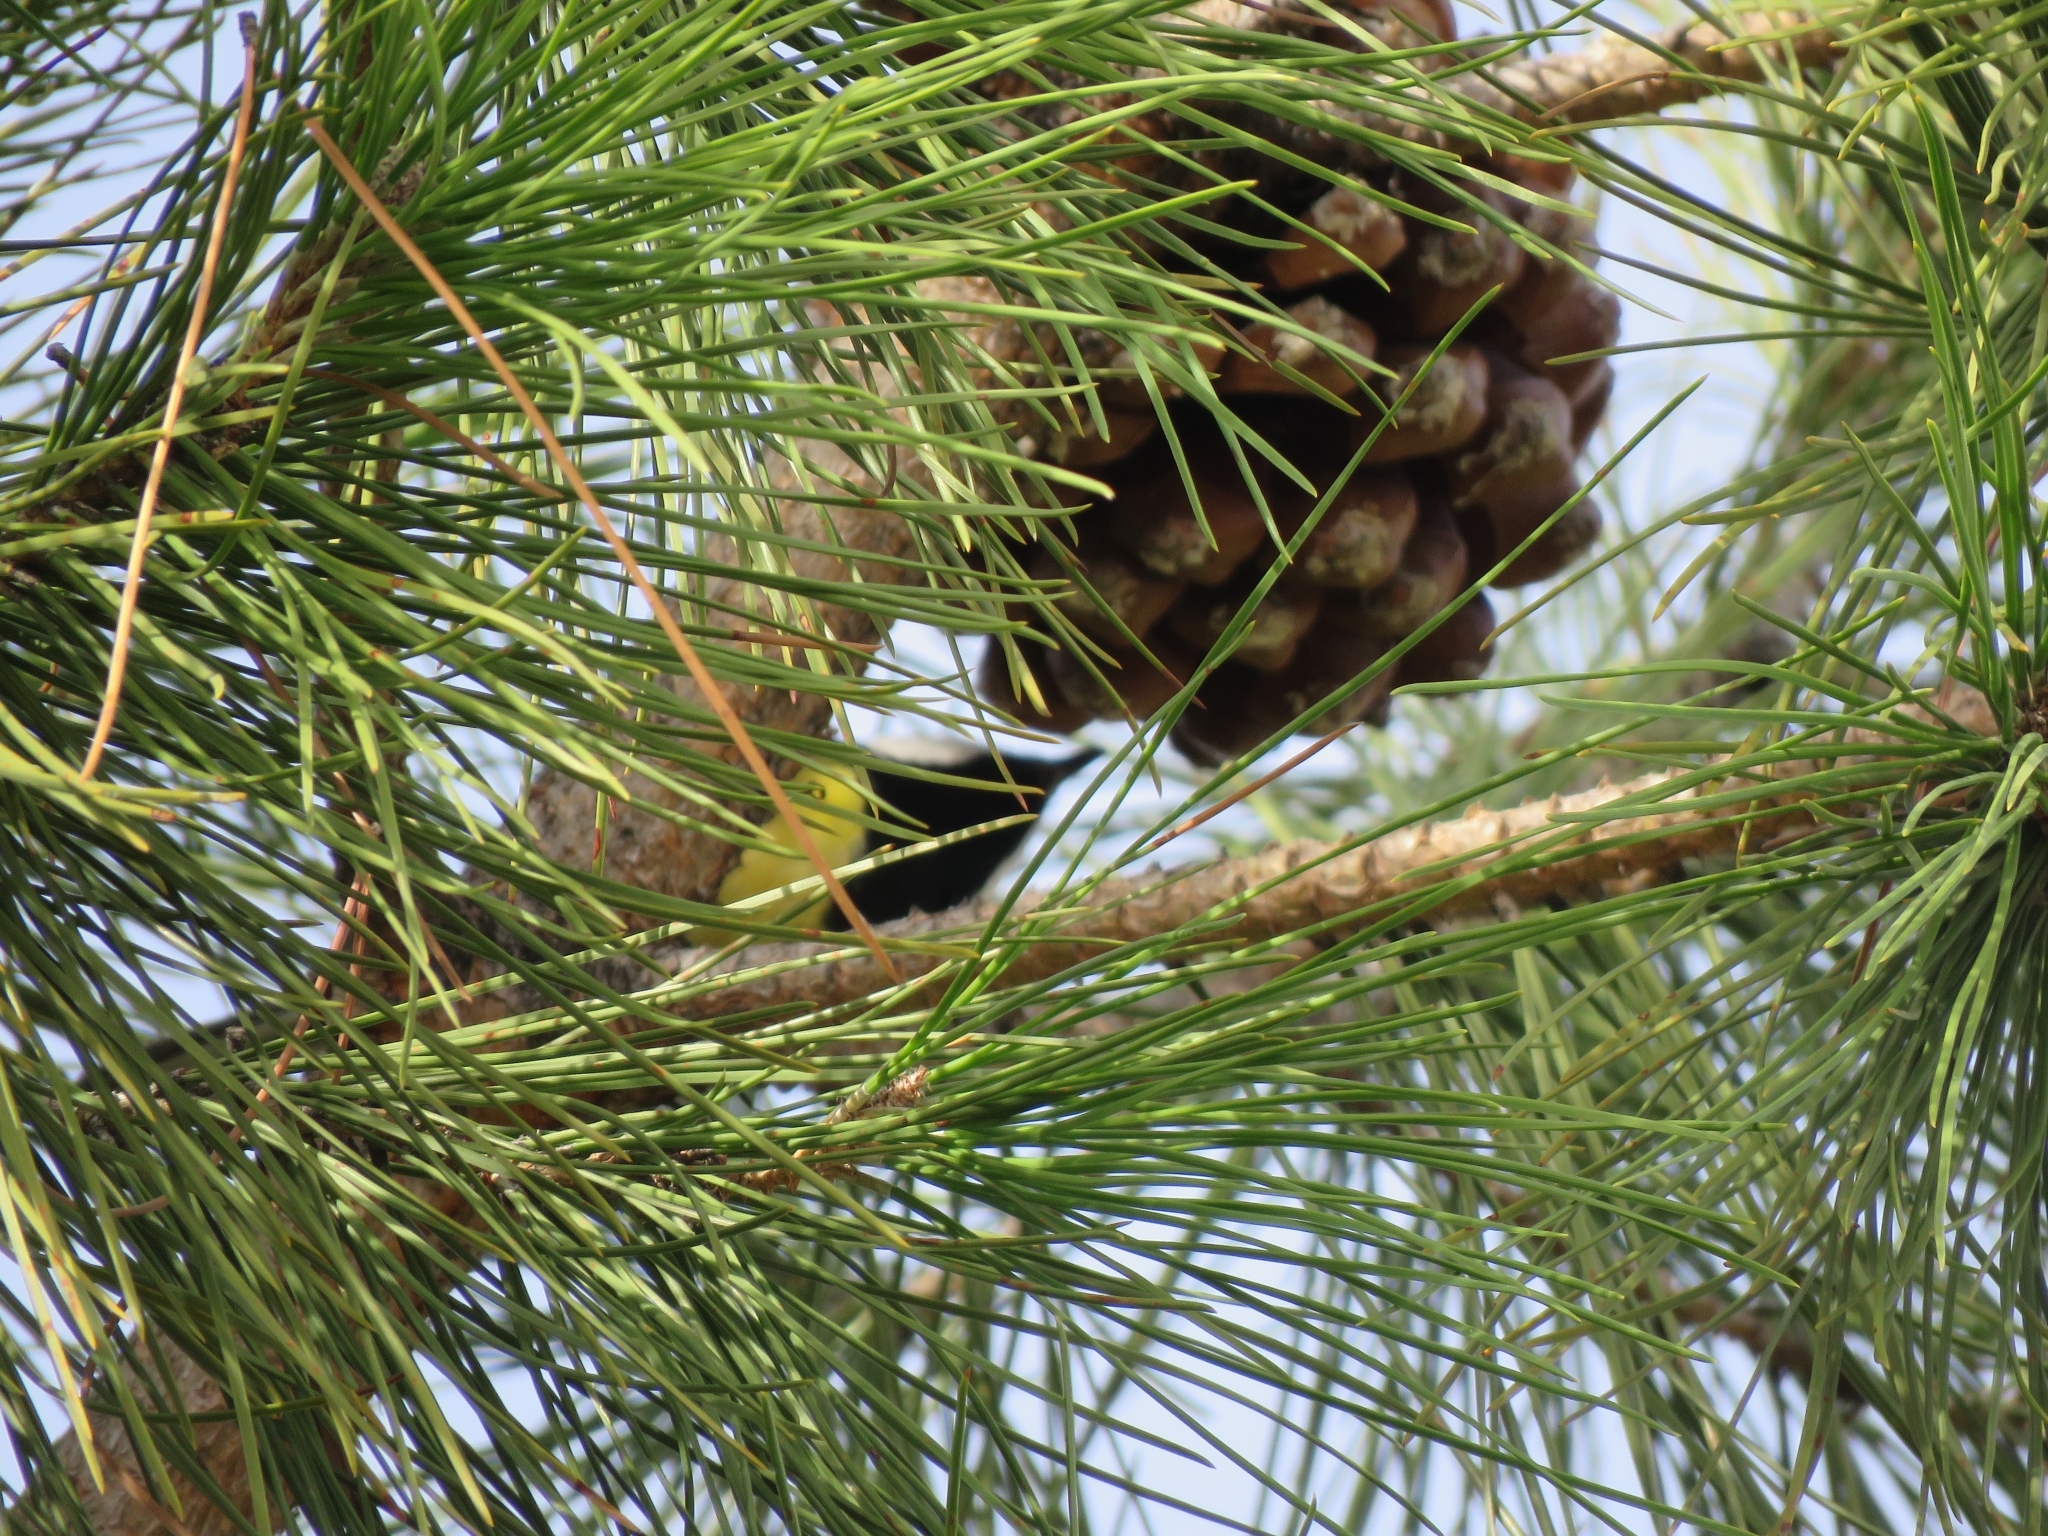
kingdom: Animalia
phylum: Chordata
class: Aves
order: Passeriformes
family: Paridae
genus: Parus
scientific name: Parus major
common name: Great tit
